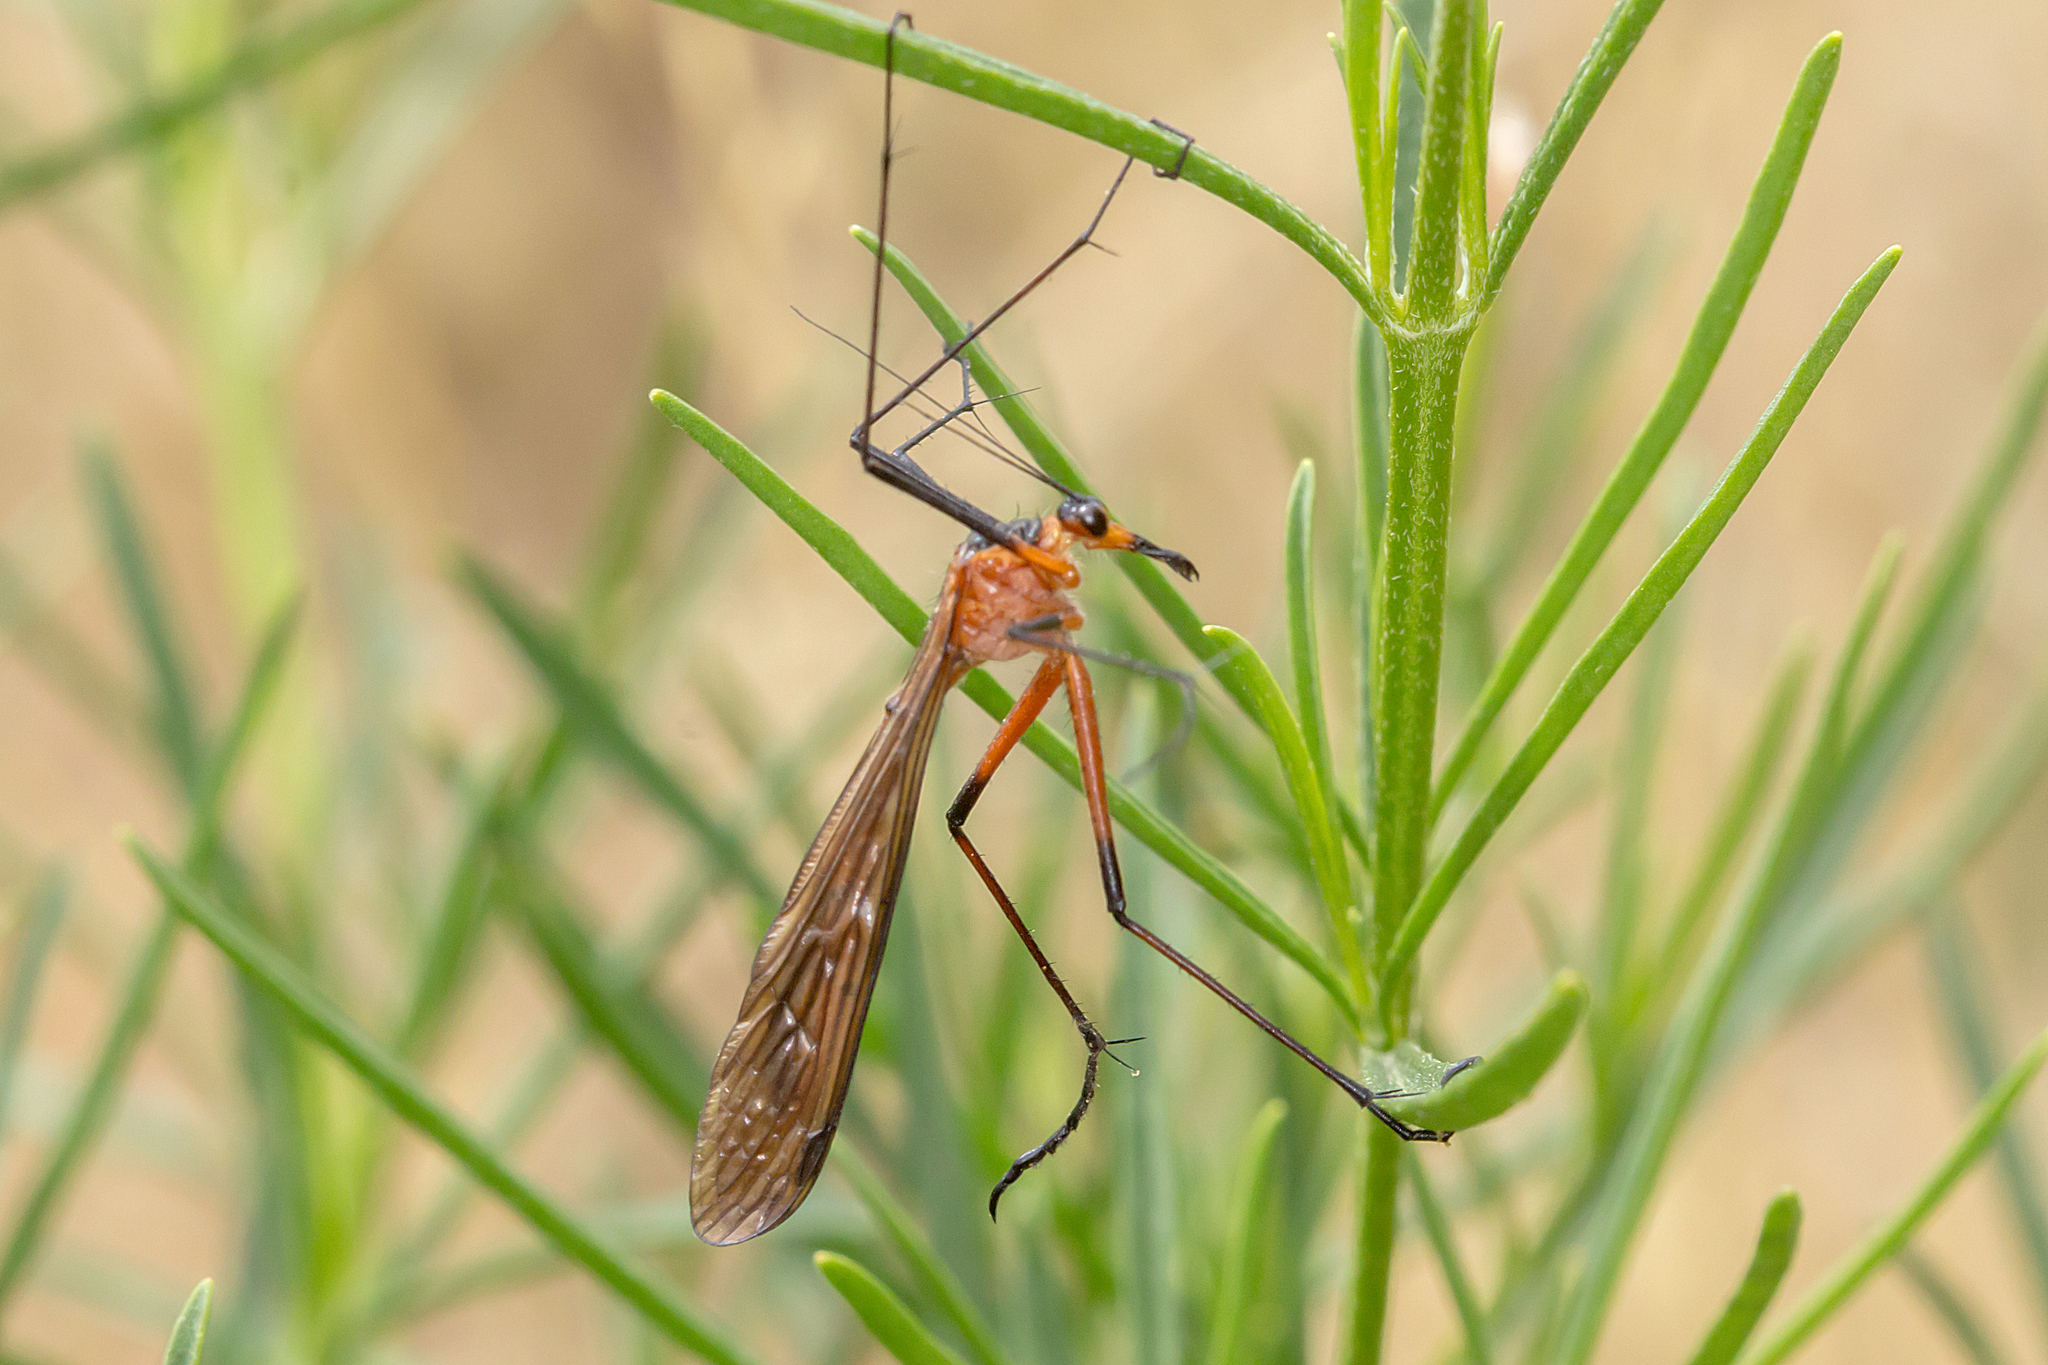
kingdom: Animalia
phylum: Arthropoda
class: Insecta
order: Mecoptera
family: Bittacidae
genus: Harpobittacus
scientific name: Harpobittacus australis
